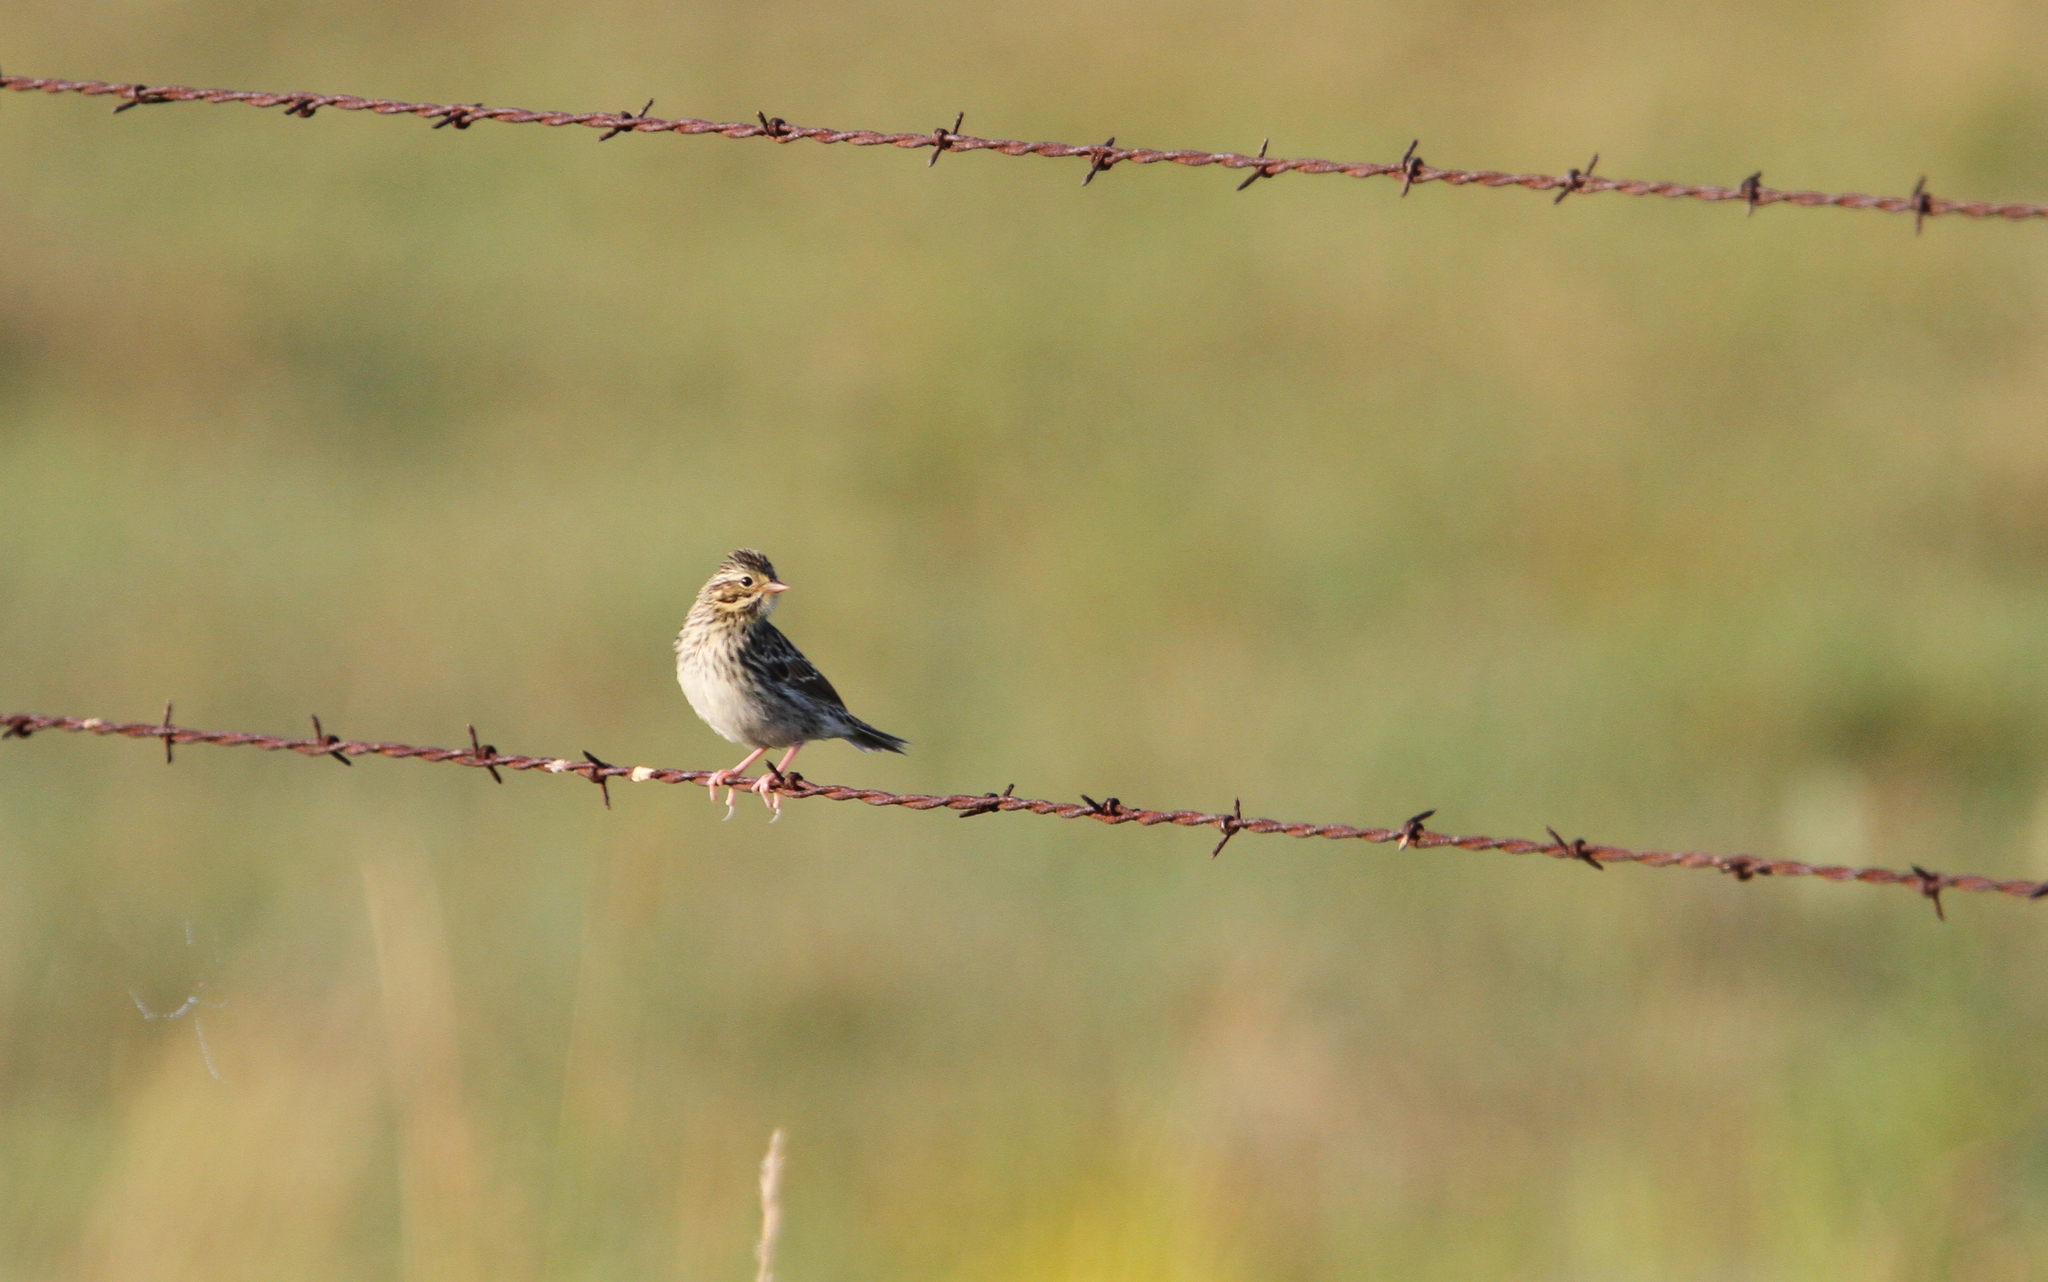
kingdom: Animalia
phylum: Chordata
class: Aves
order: Passeriformes
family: Passerellidae
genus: Passerculus
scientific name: Passerculus sandwichensis
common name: Savannah sparrow
